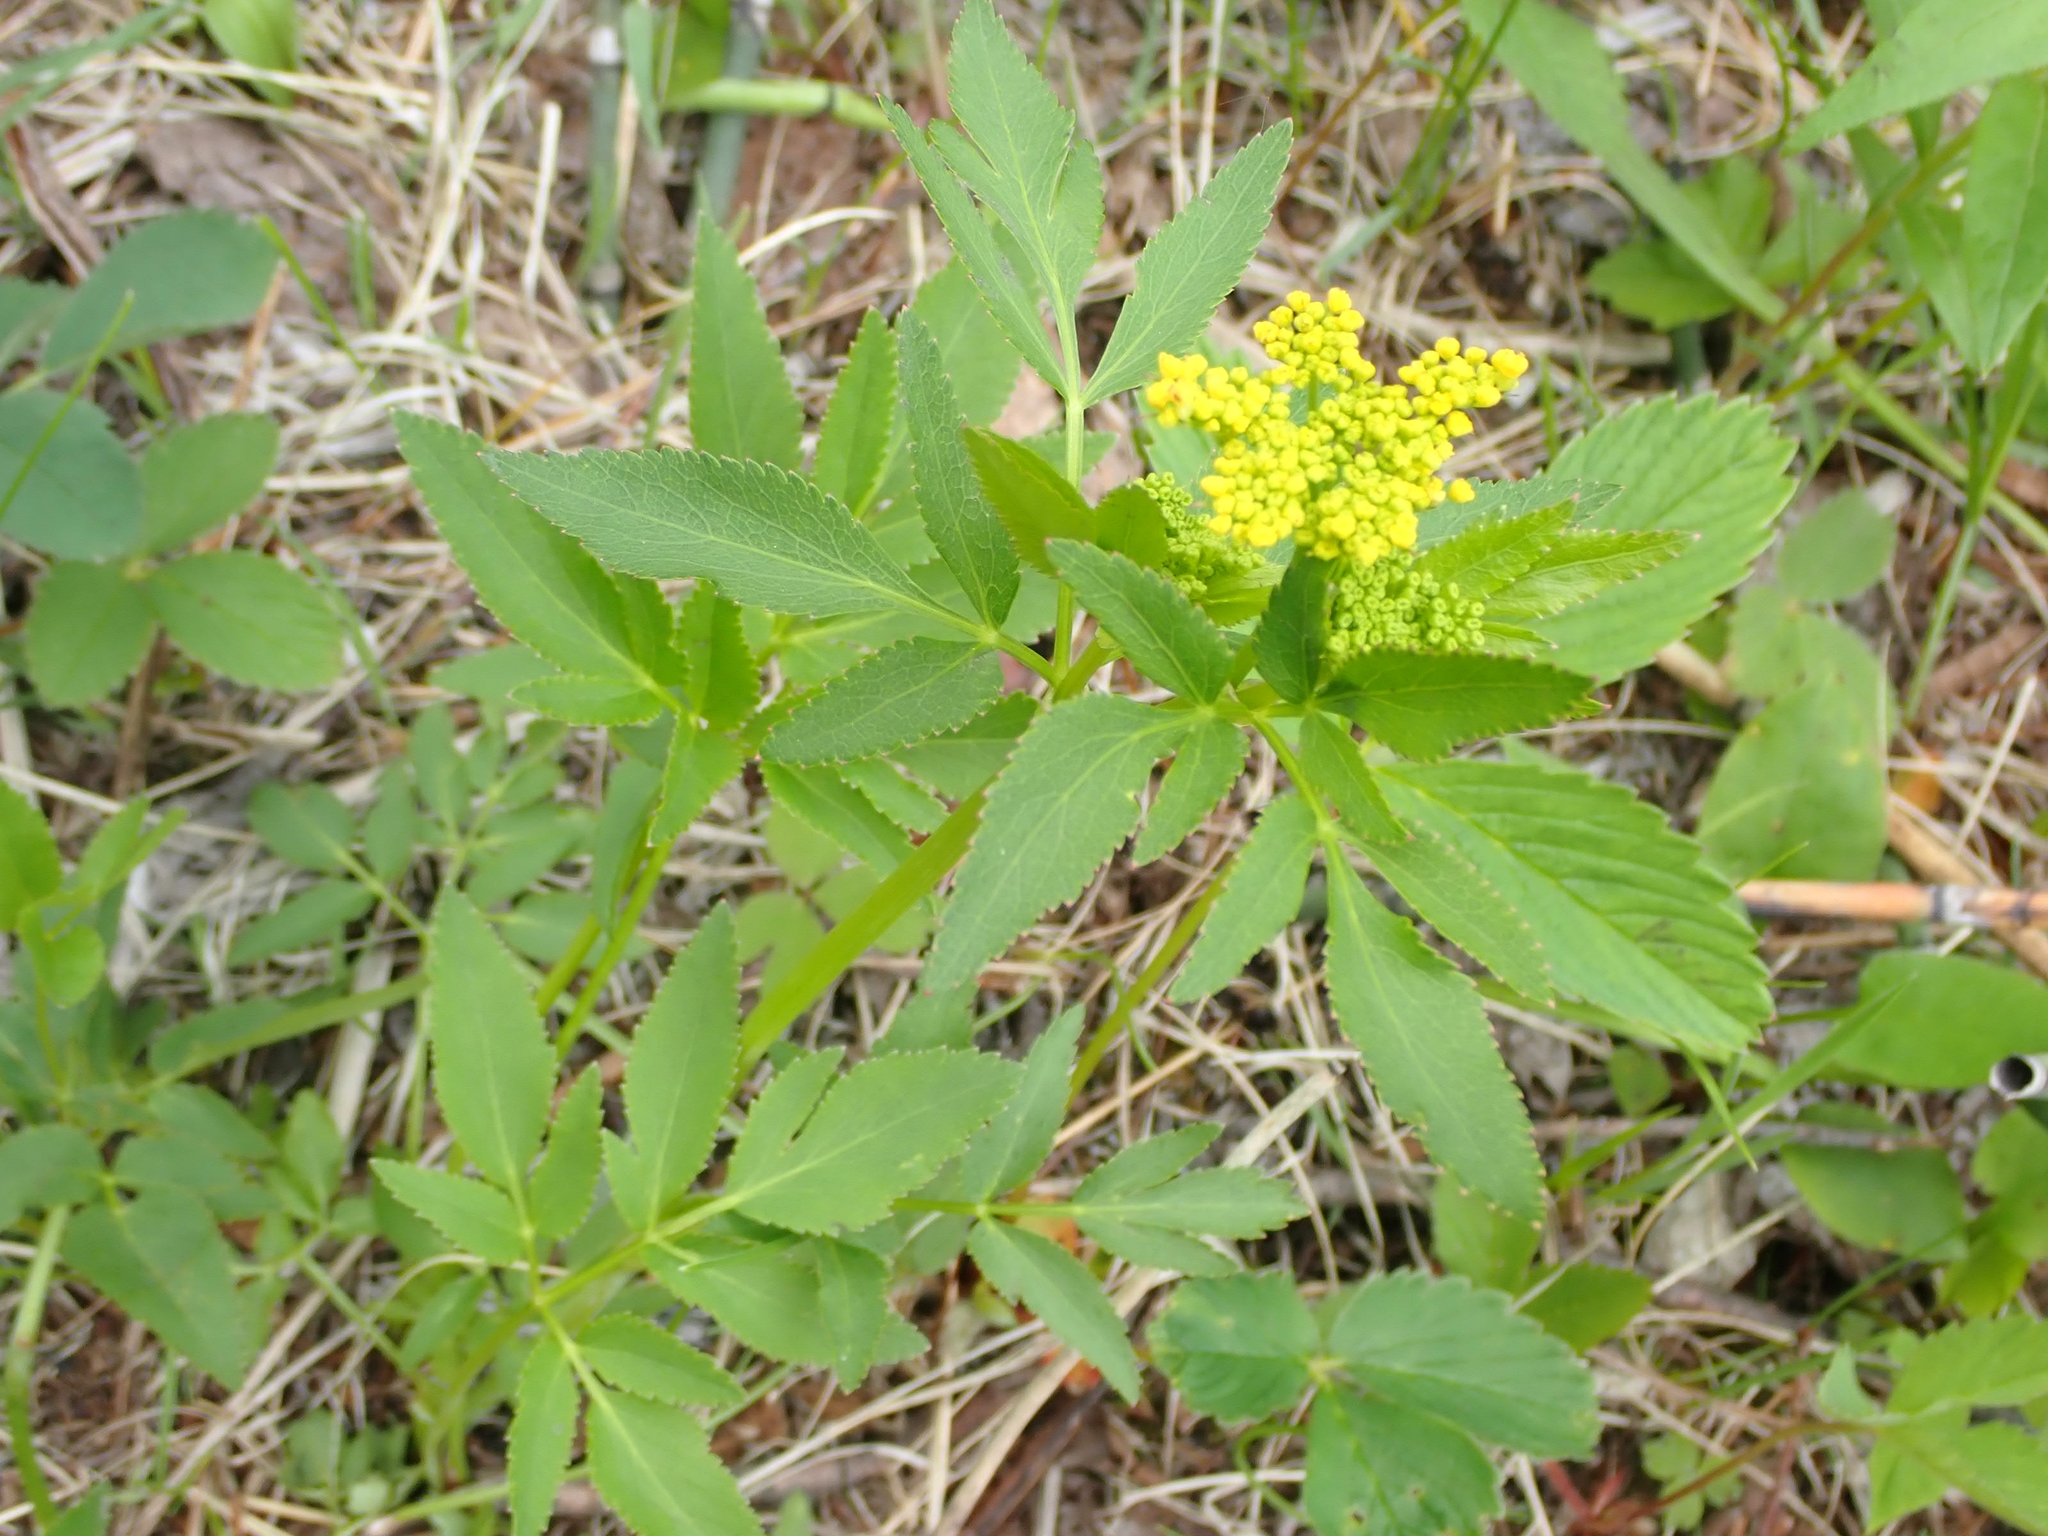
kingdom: Plantae
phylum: Tracheophyta
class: Magnoliopsida
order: Apiales
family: Apiaceae
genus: Zizia
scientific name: Zizia aurea
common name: Golden alexanders
